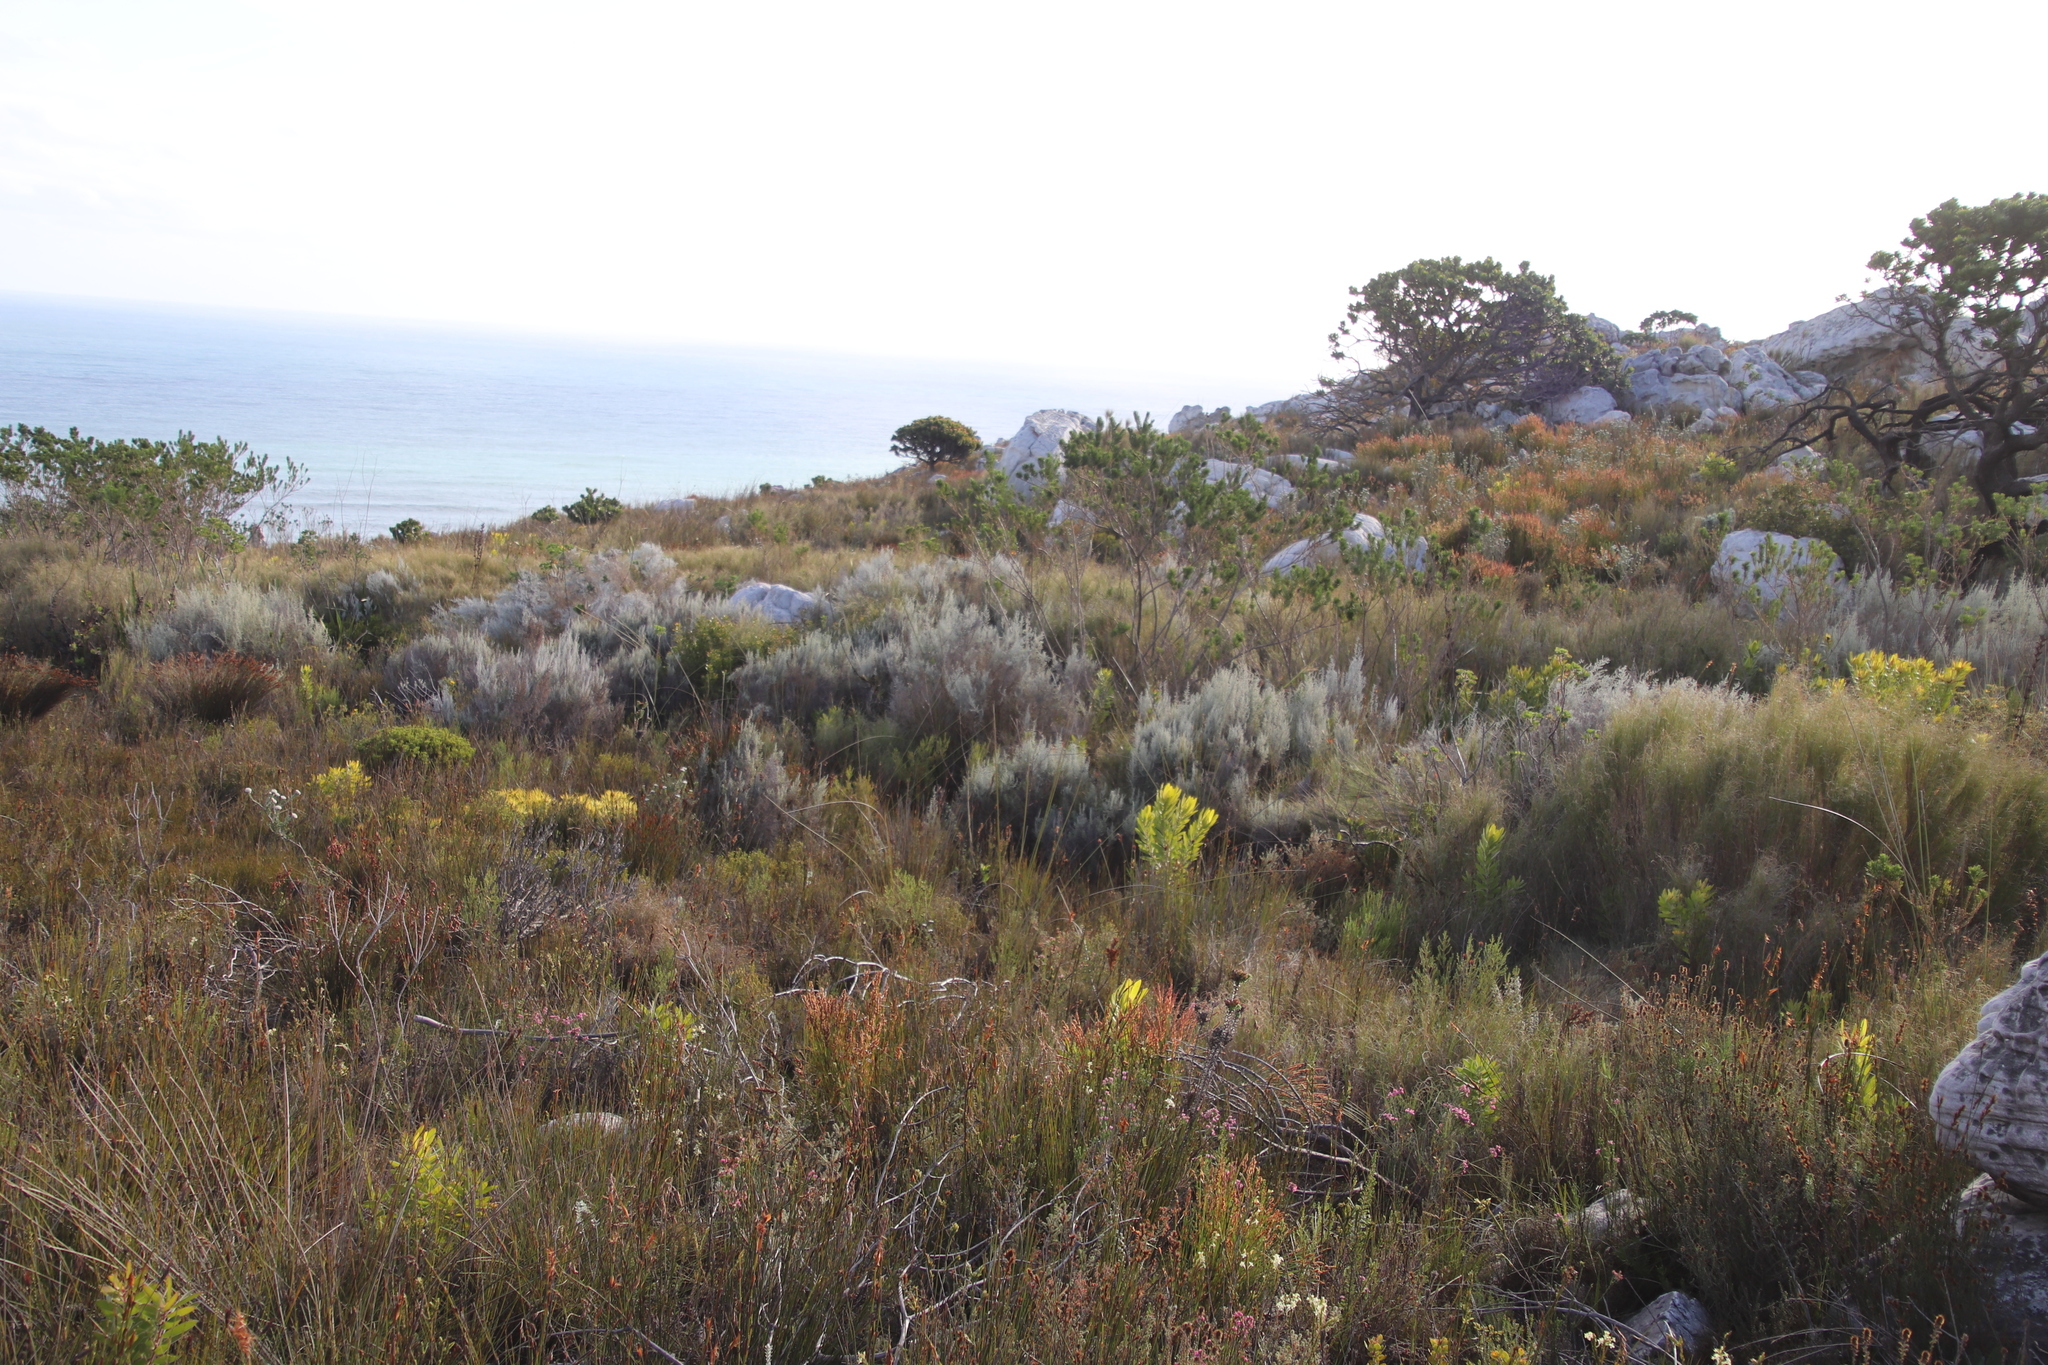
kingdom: Plantae
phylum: Tracheophyta
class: Magnoliopsida
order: Asterales
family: Asteraceae
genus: Seriphium
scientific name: Seriphium plumosum
